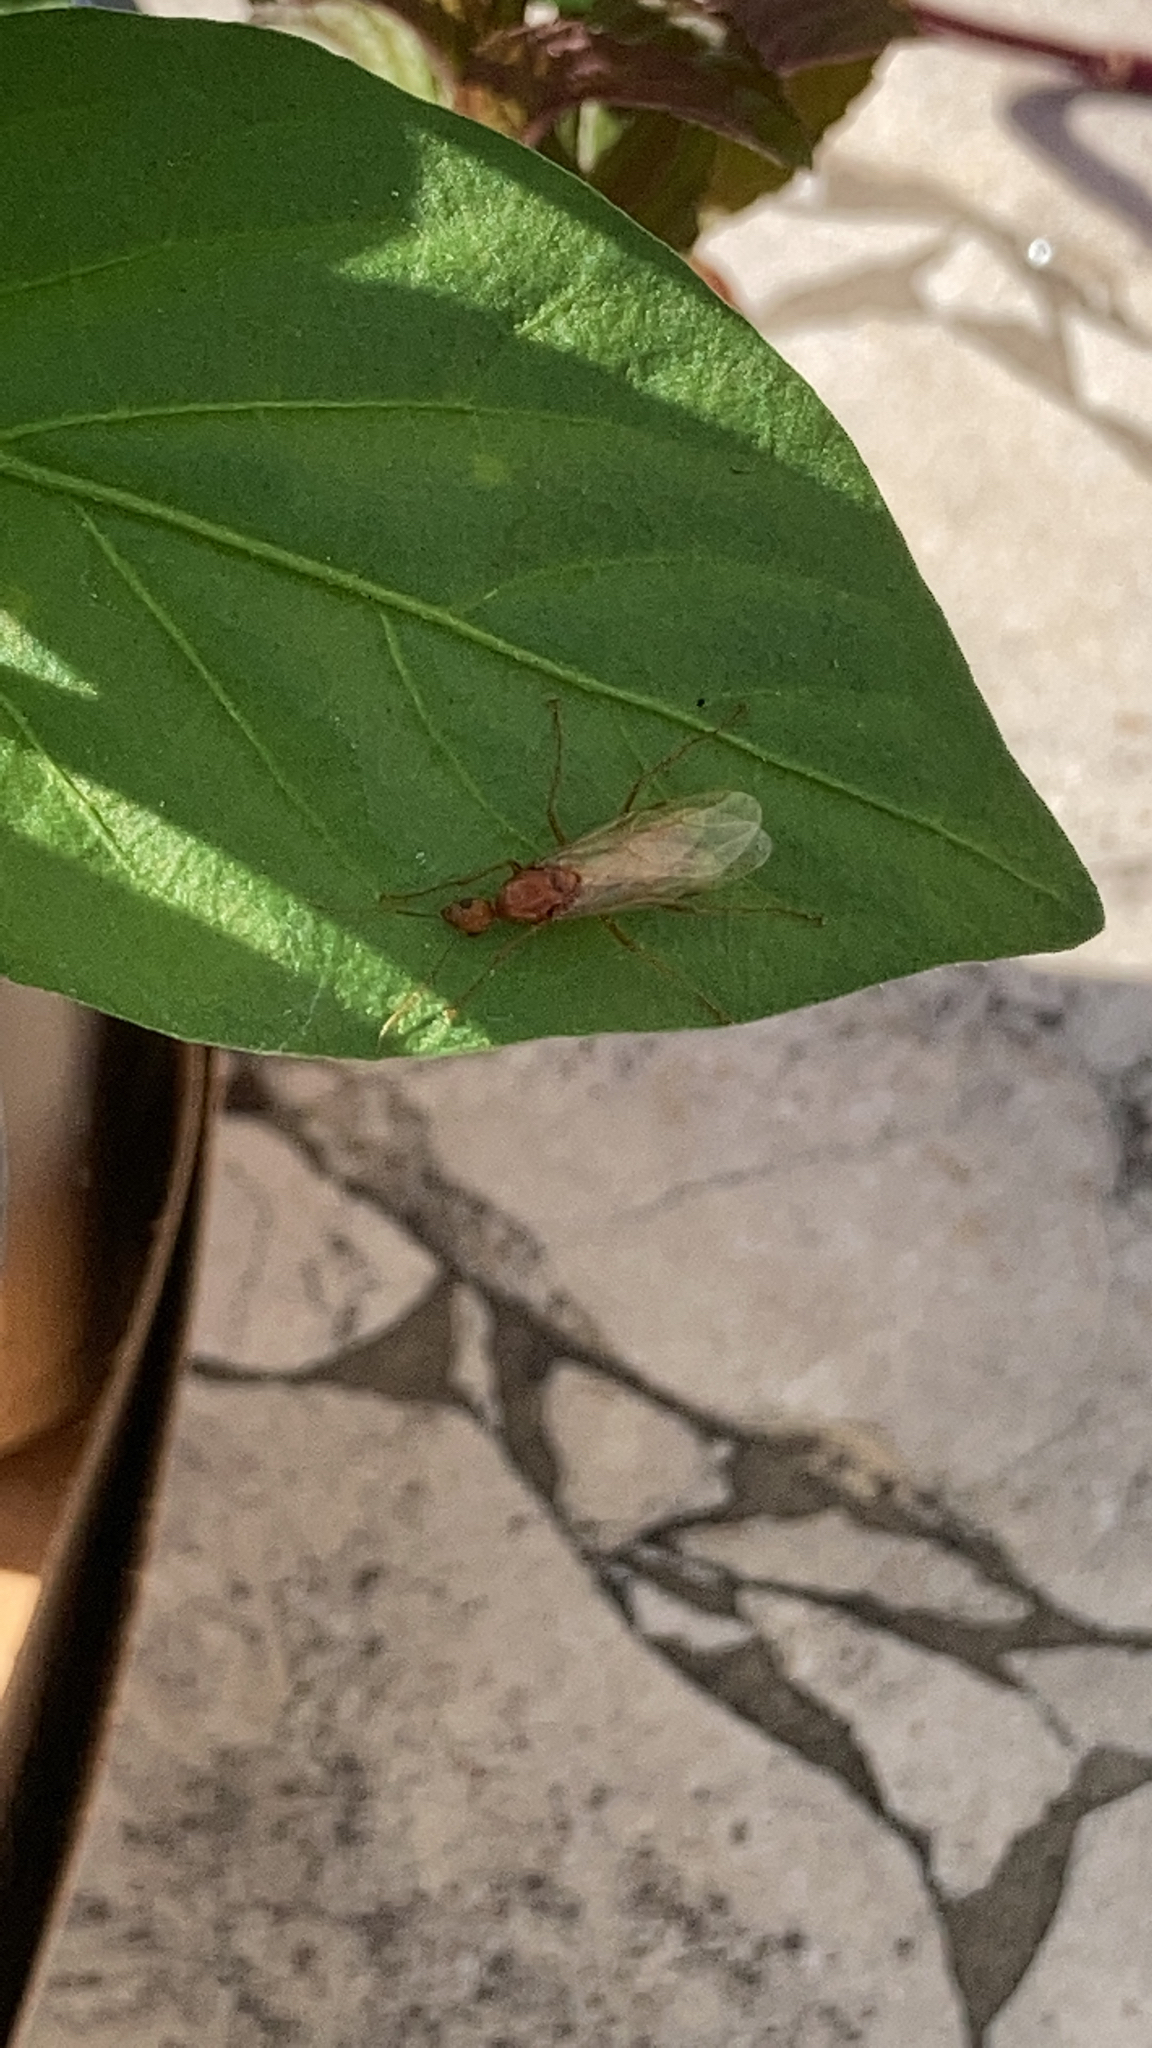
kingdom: Animalia
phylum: Arthropoda
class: Insecta
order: Hymenoptera
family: Formicidae
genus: Camponotus
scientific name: Camponotus castaneus
